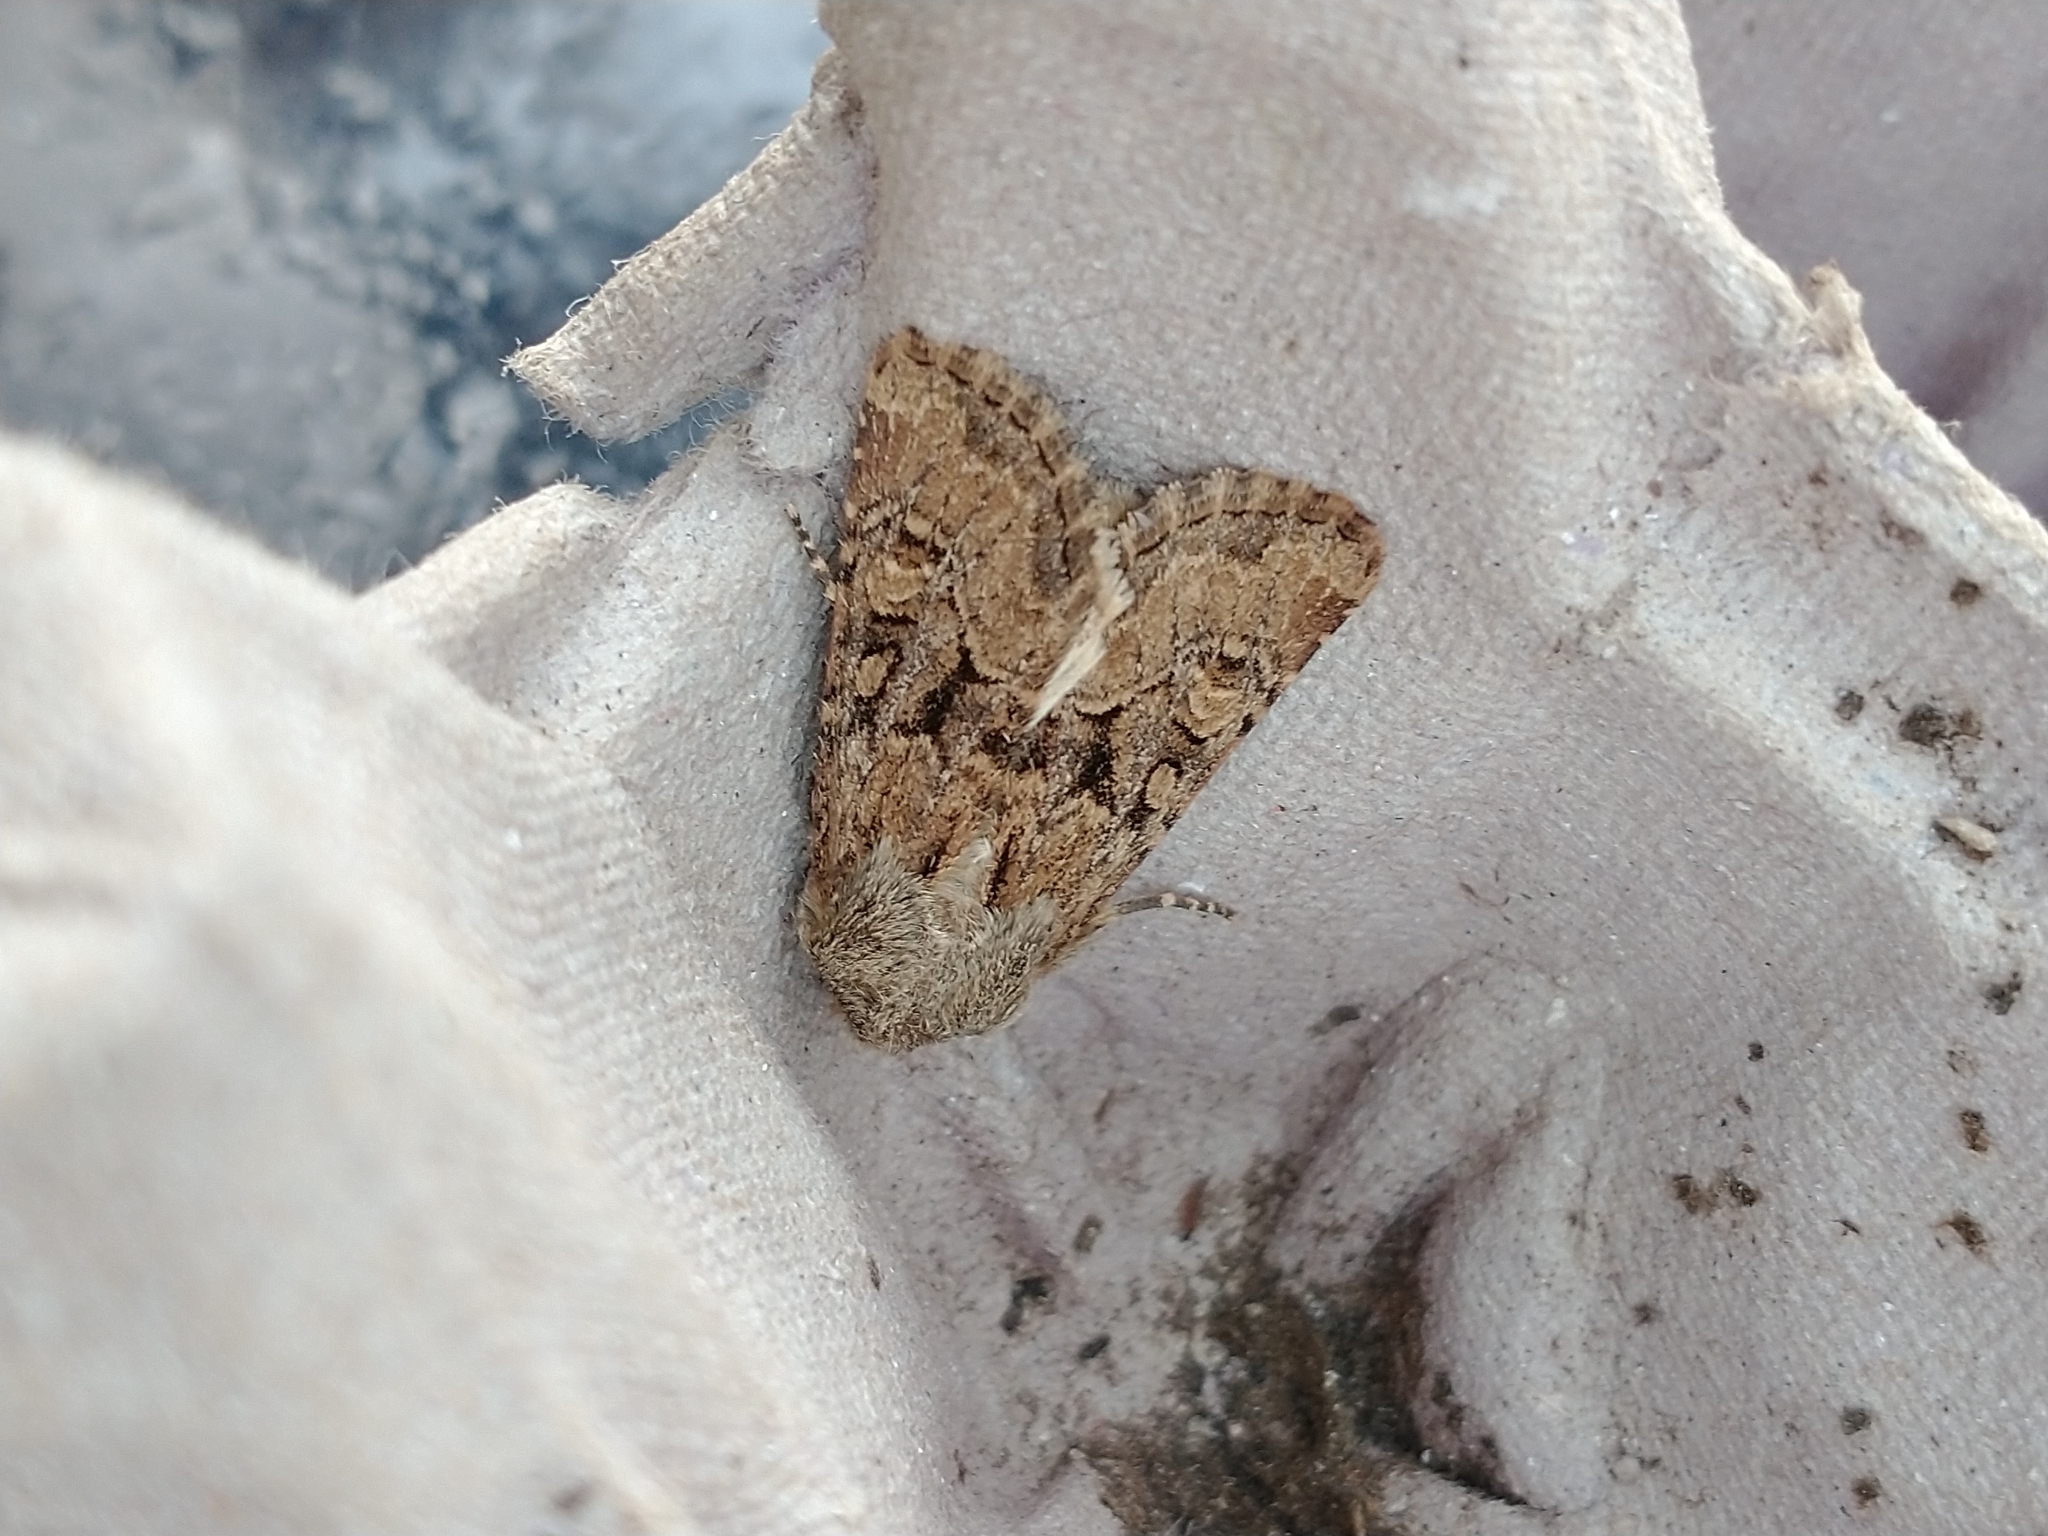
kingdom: Animalia
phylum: Arthropoda
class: Insecta
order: Lepidoptera
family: Noctuidae
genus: Luperina
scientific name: Luperina testacea
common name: Flounced rustic
